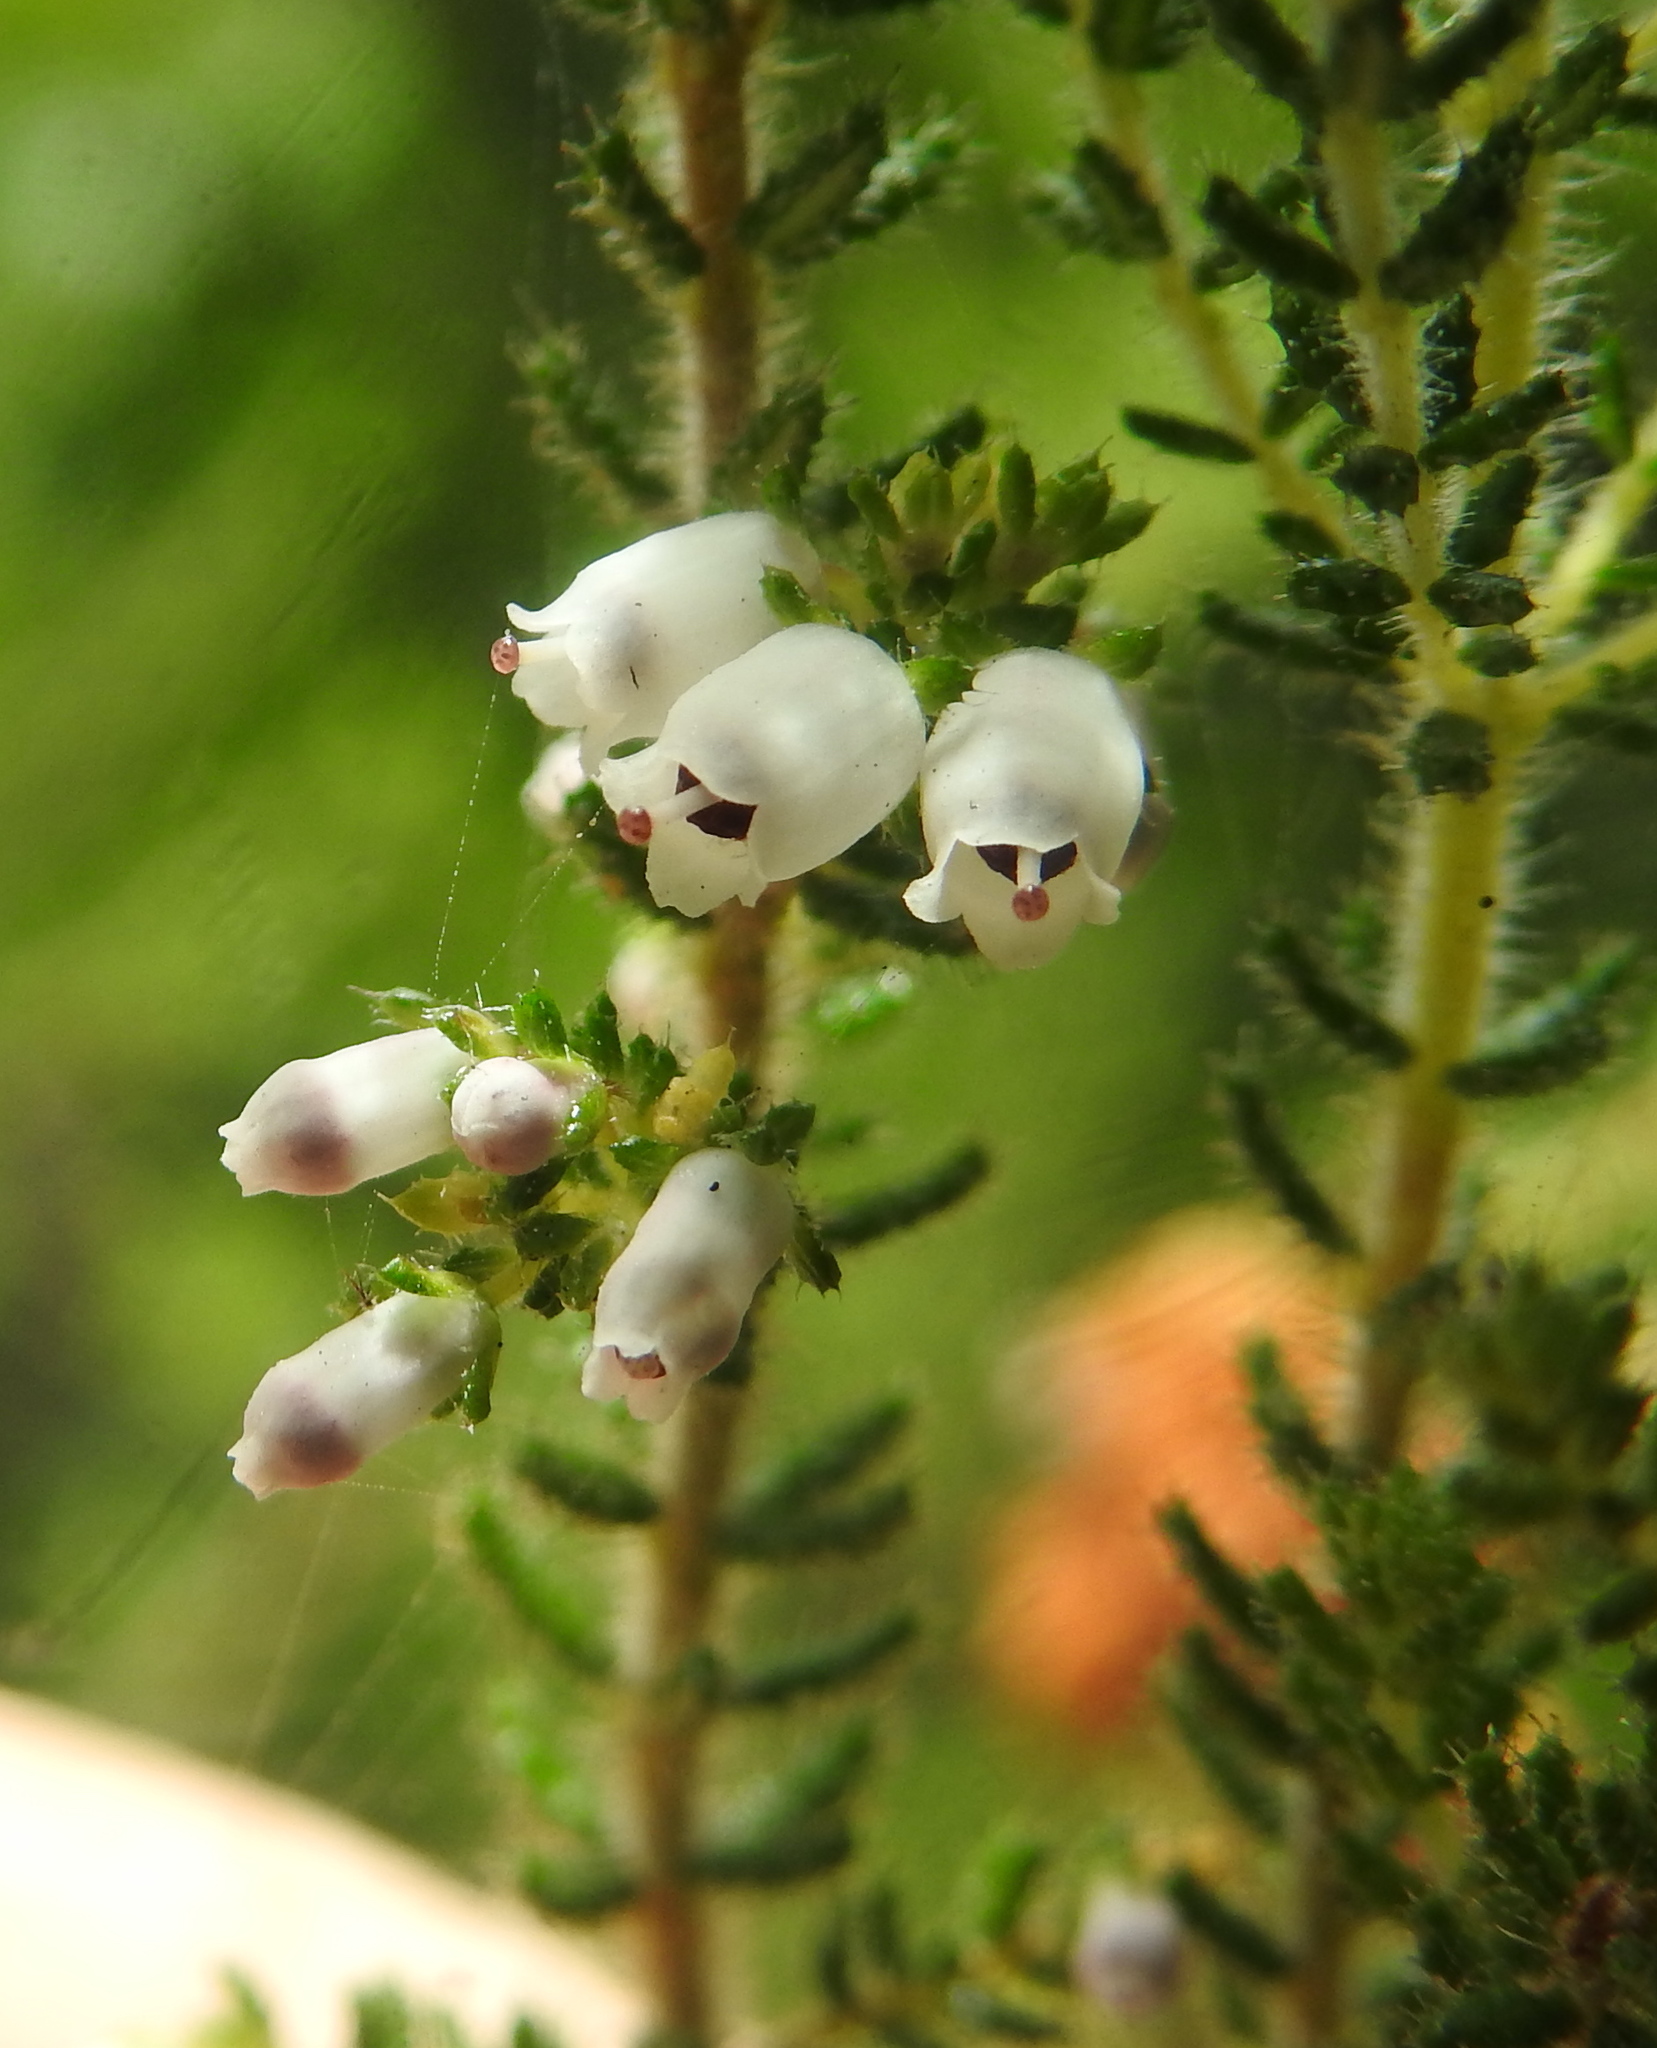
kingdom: Plantae
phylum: Tracheophyta
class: Magnoliopsida
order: Ericales
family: Ericaceae
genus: Erica
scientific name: Erica scabriuscula
